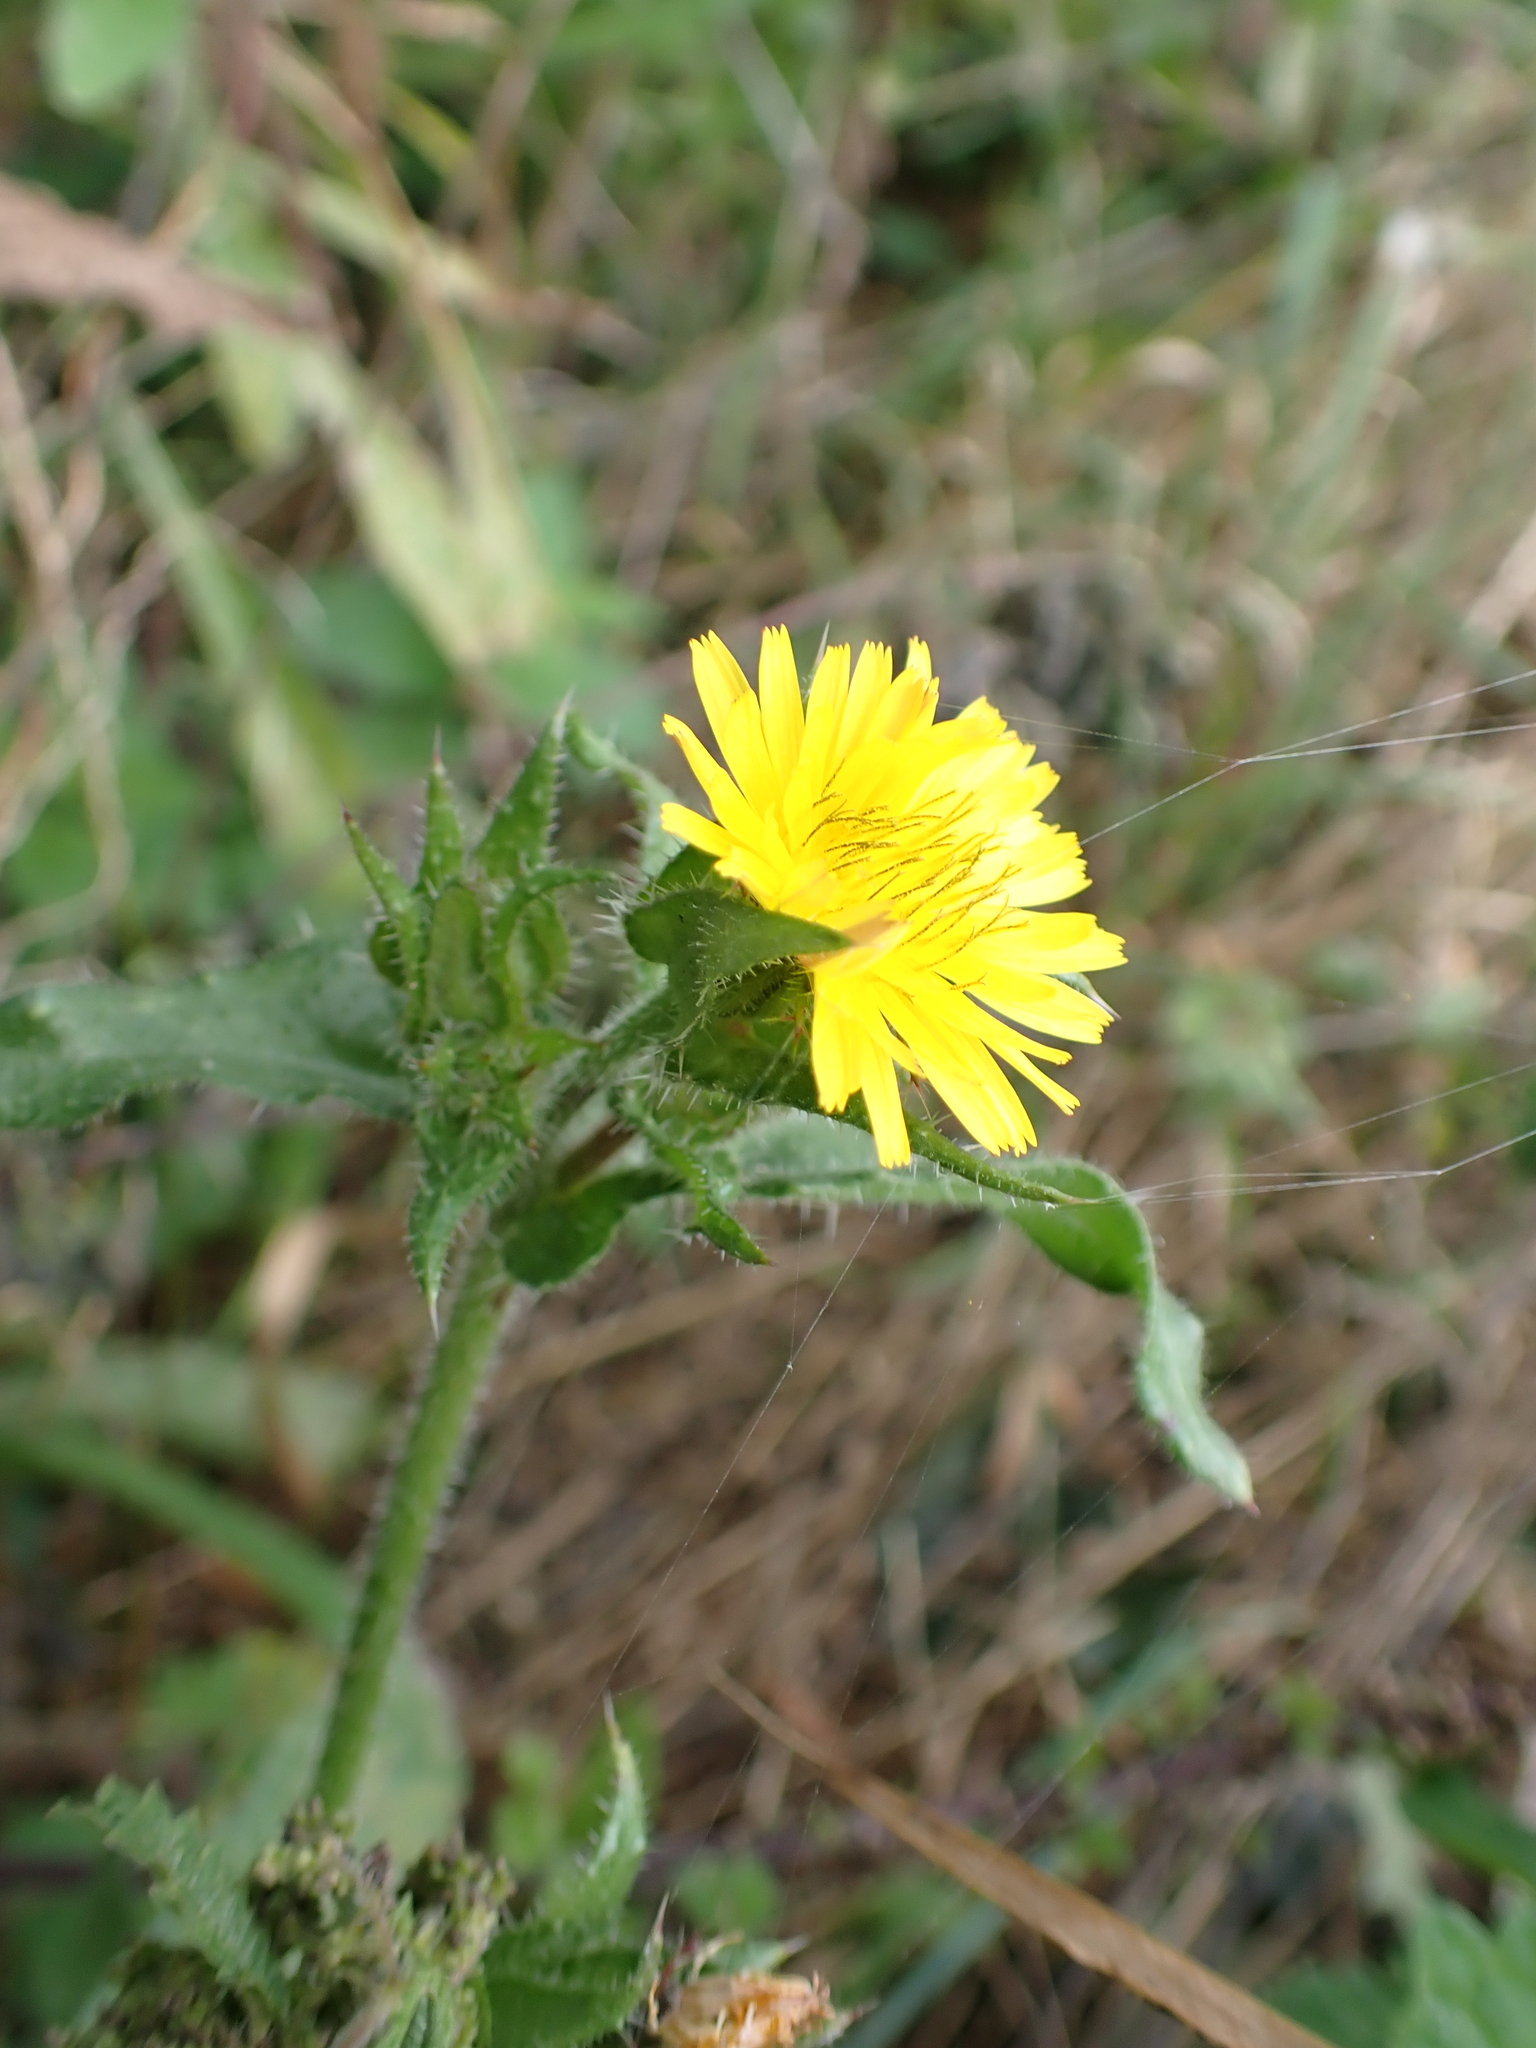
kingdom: Plantae
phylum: Tracheophyta
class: Magnoliopsida
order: Asterales
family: Asteraceae
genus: Helminthotheca
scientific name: Helminthotheca echioides
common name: Ox-tongue
